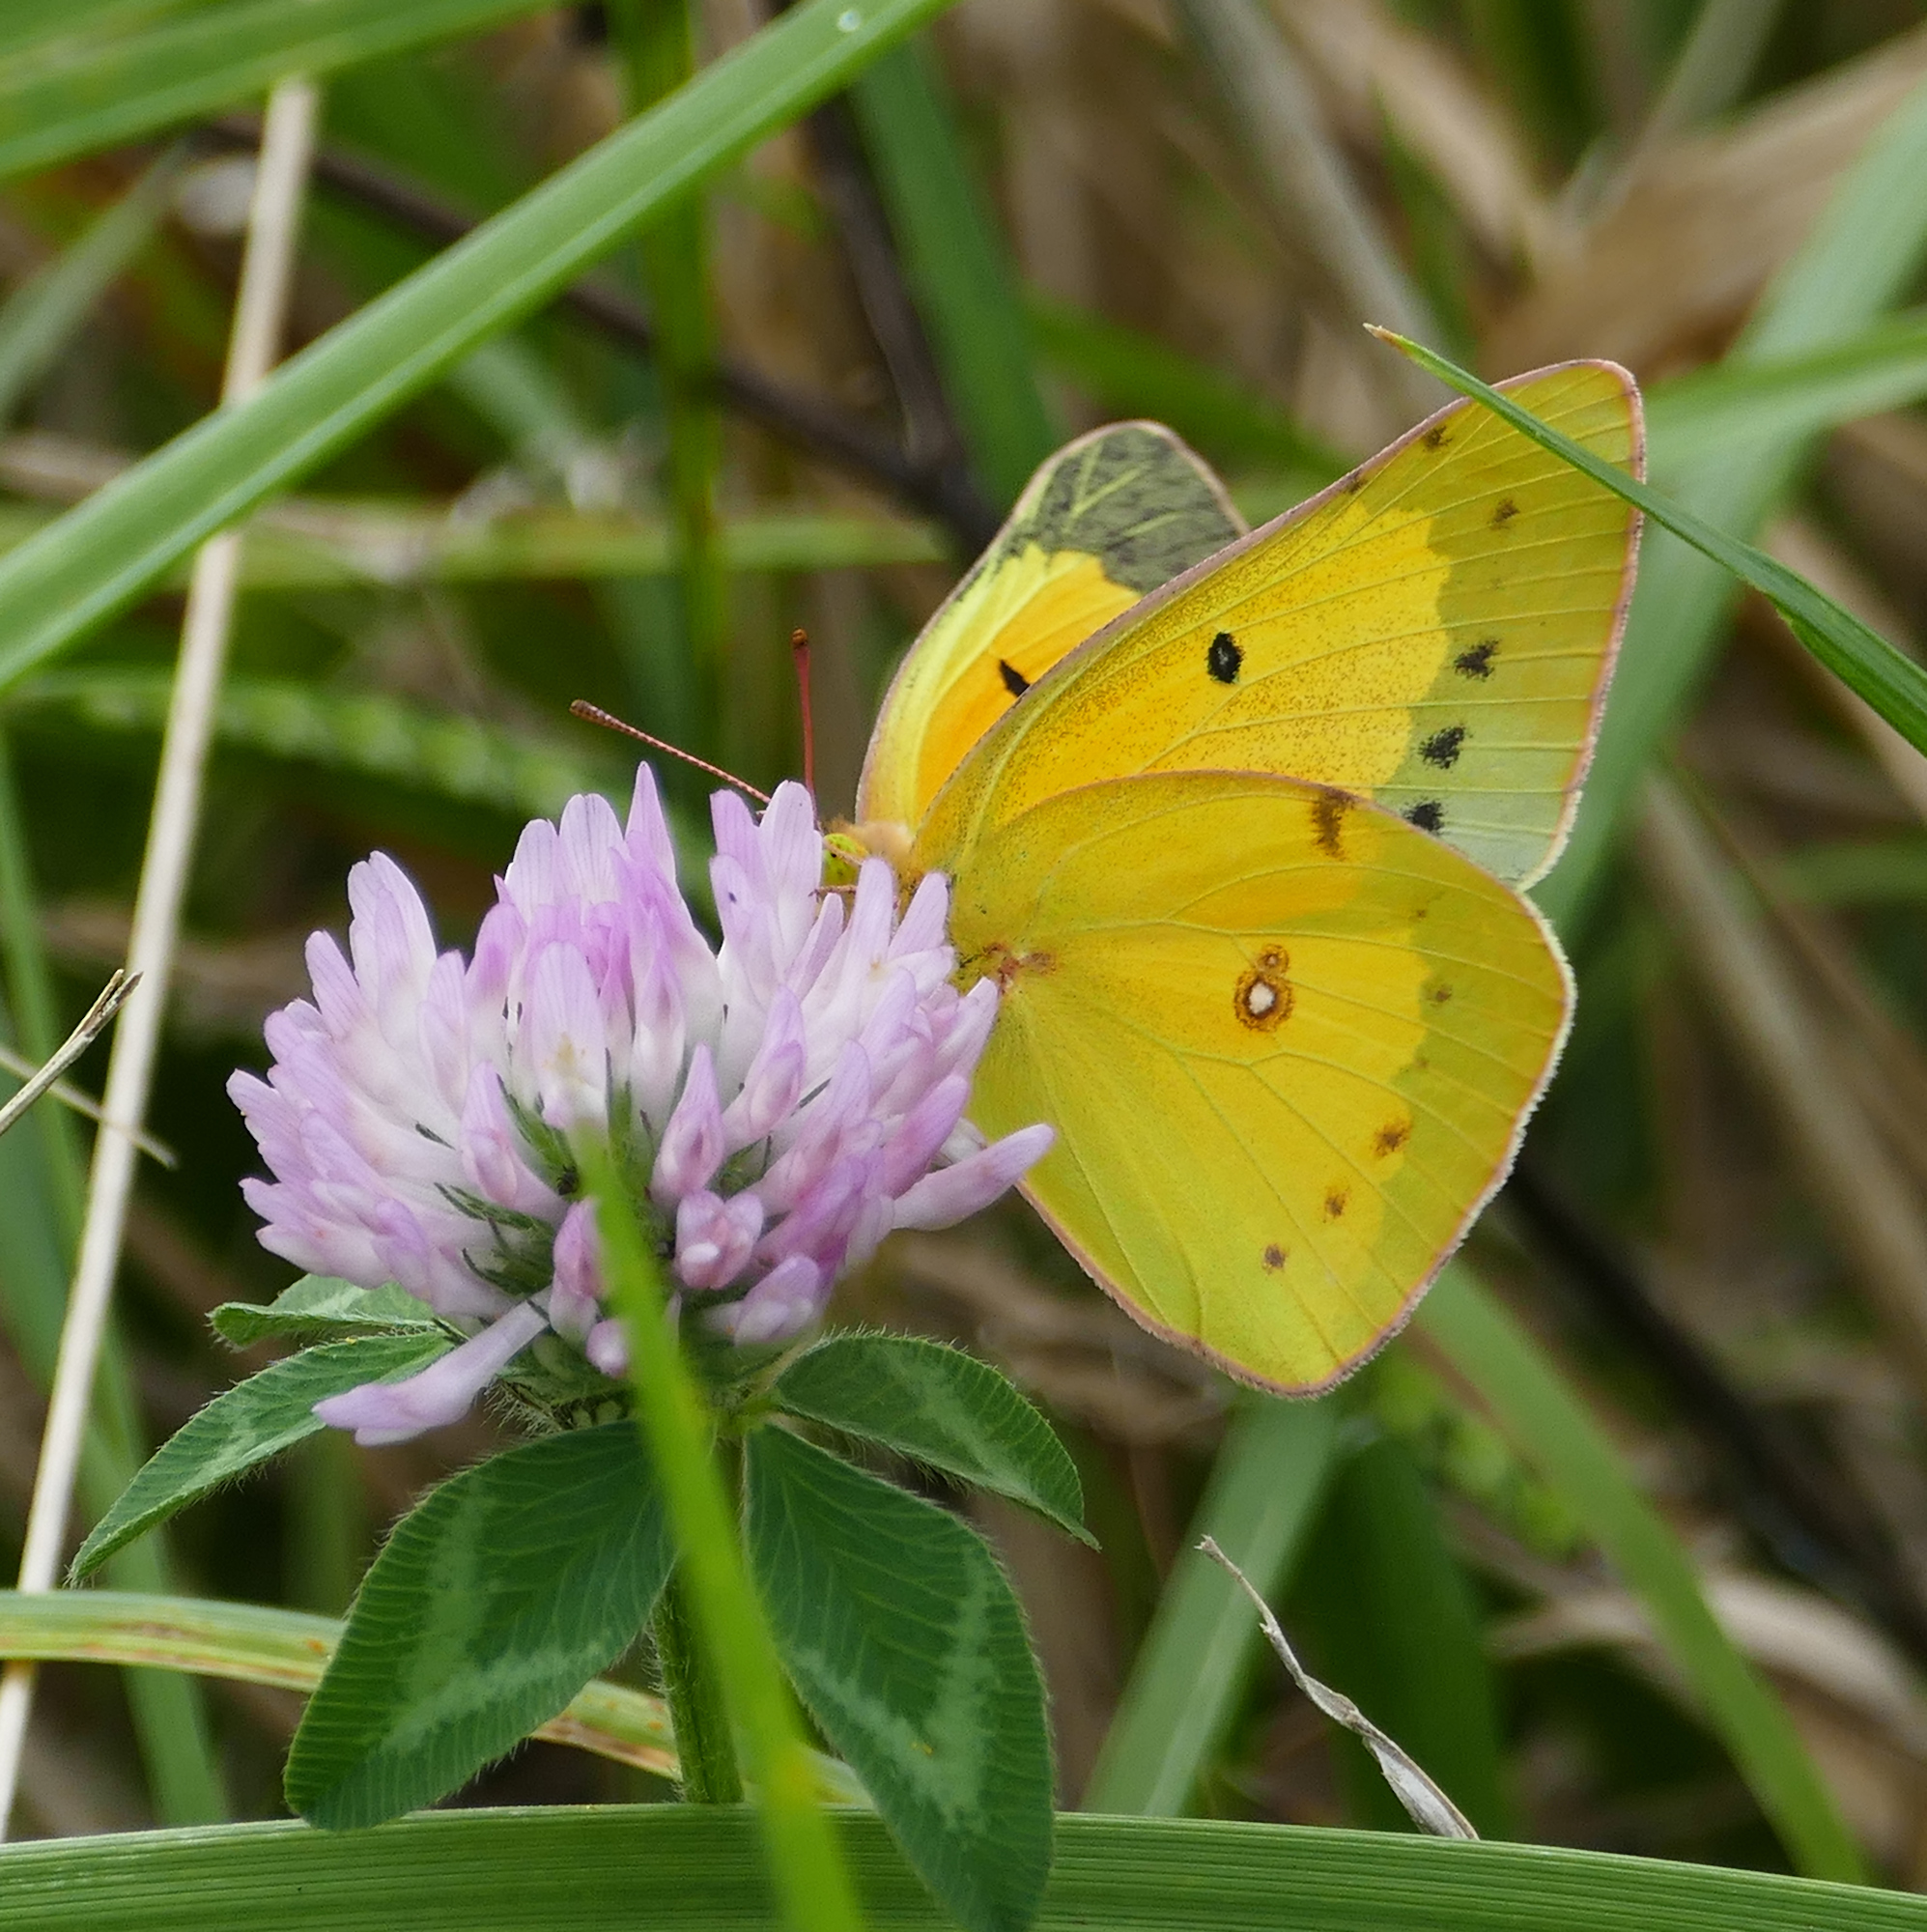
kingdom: Animalia
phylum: Arthropoda
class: Insecta
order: Lepidoptera
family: Pieridae
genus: Colias
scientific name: Colias eurytheme
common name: Alfalfa butterfly
